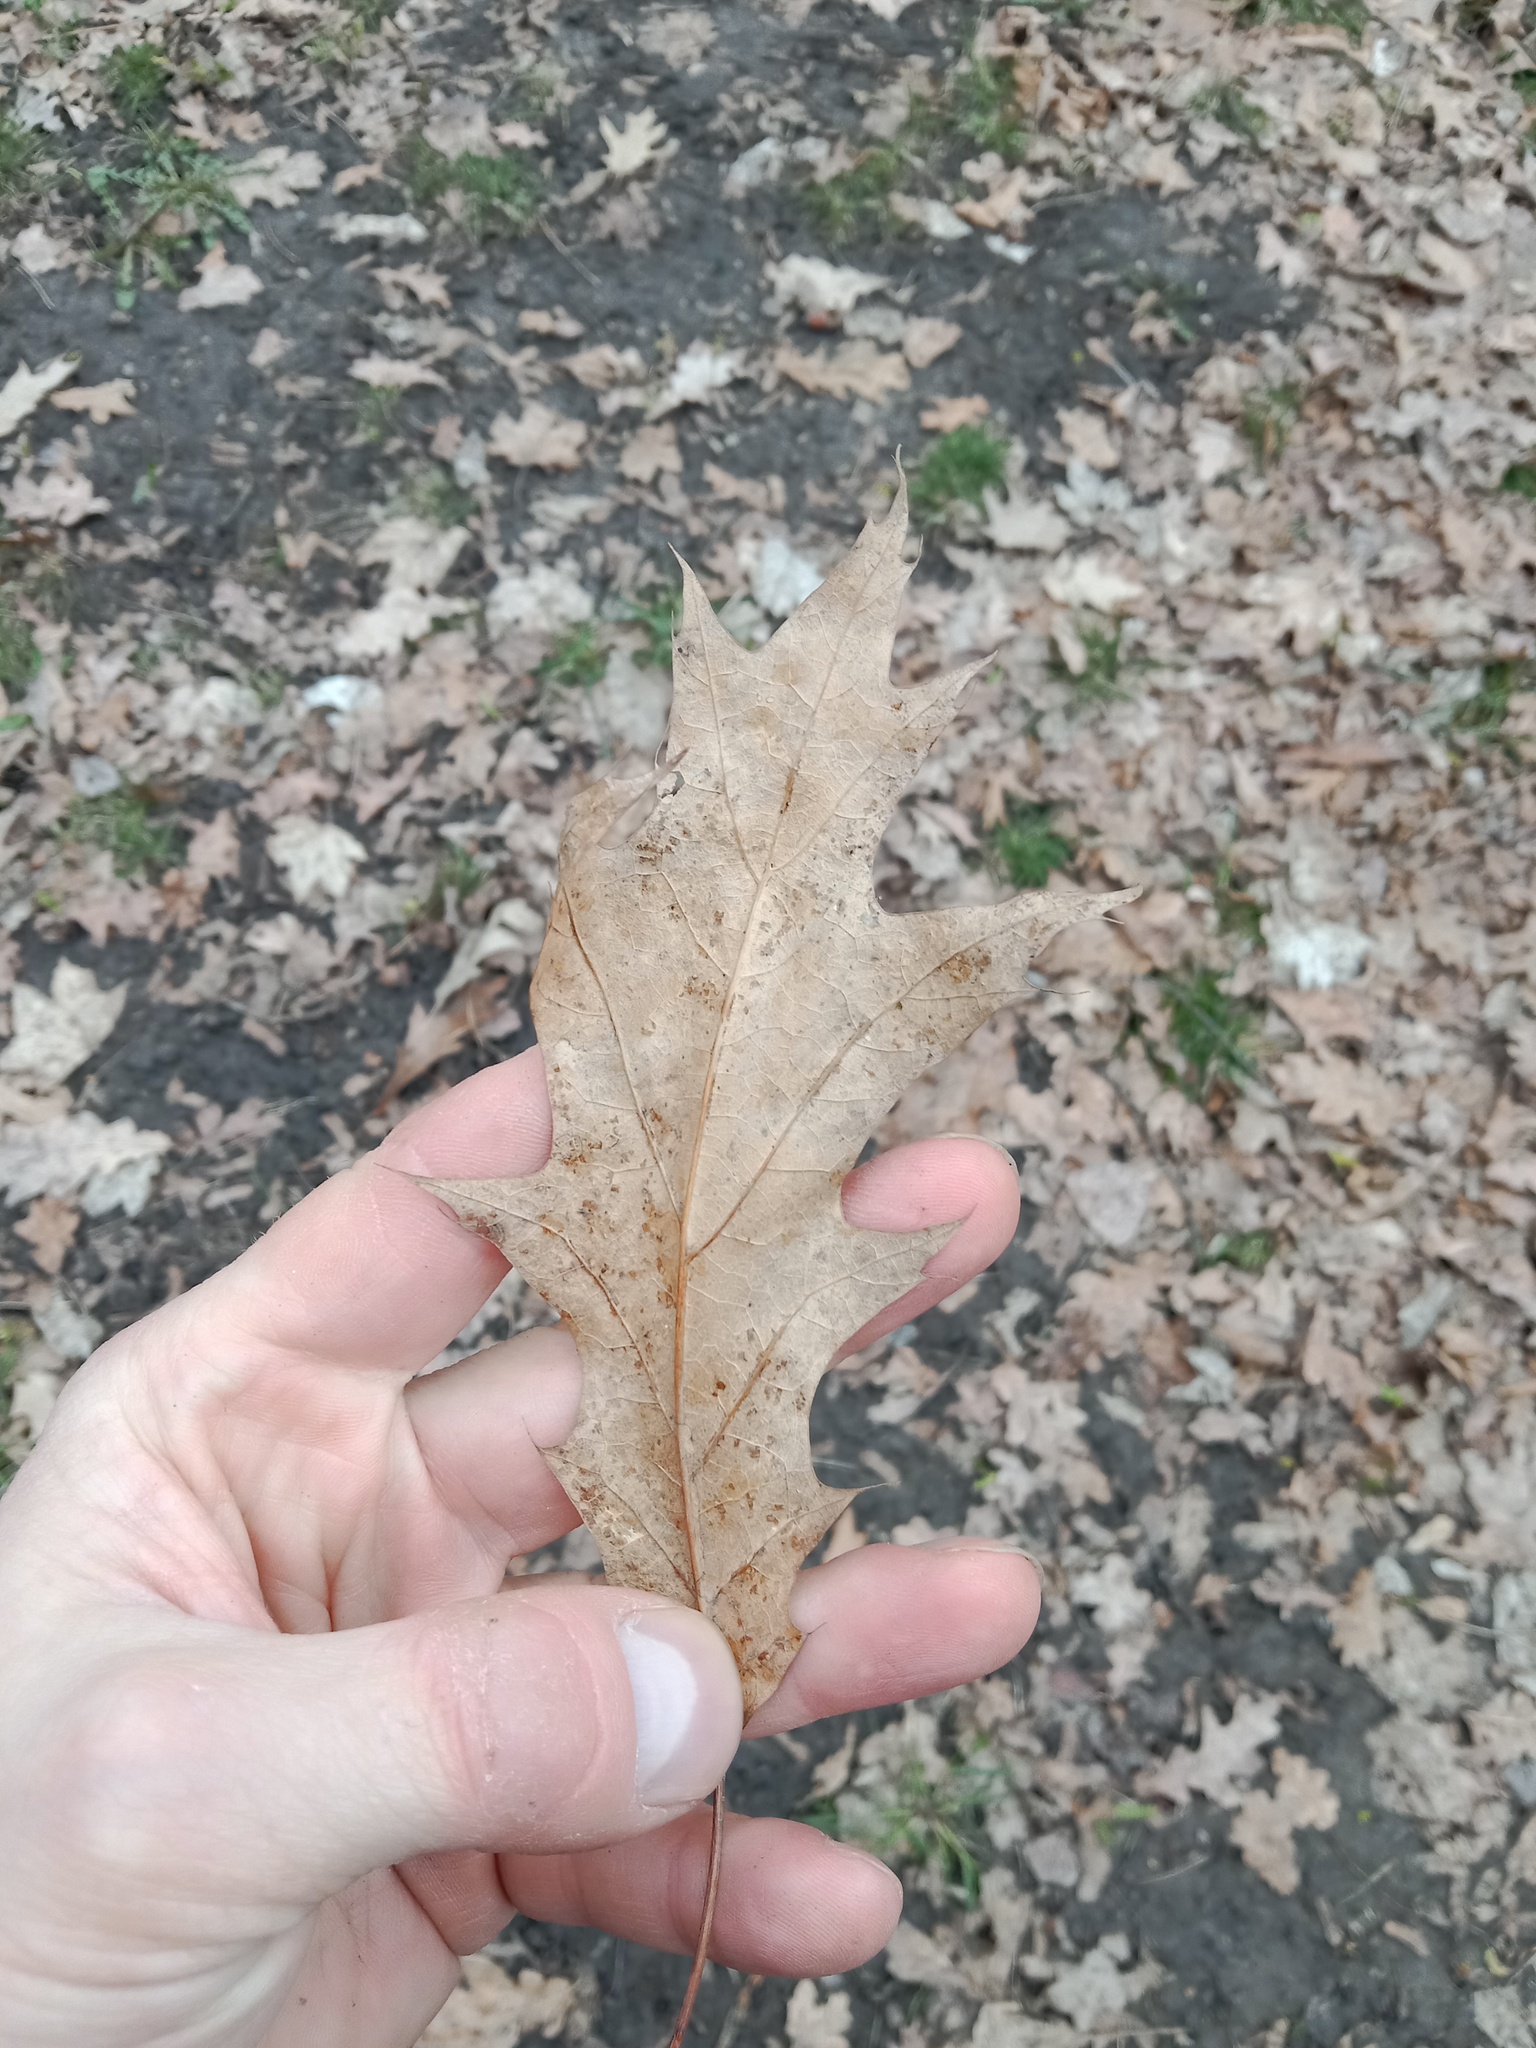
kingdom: Plantae
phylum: Tracheophyta
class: Magnoliopsida
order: Fagales
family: Fagaceae
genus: Quercus
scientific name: Quercus rubra
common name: Red oak
